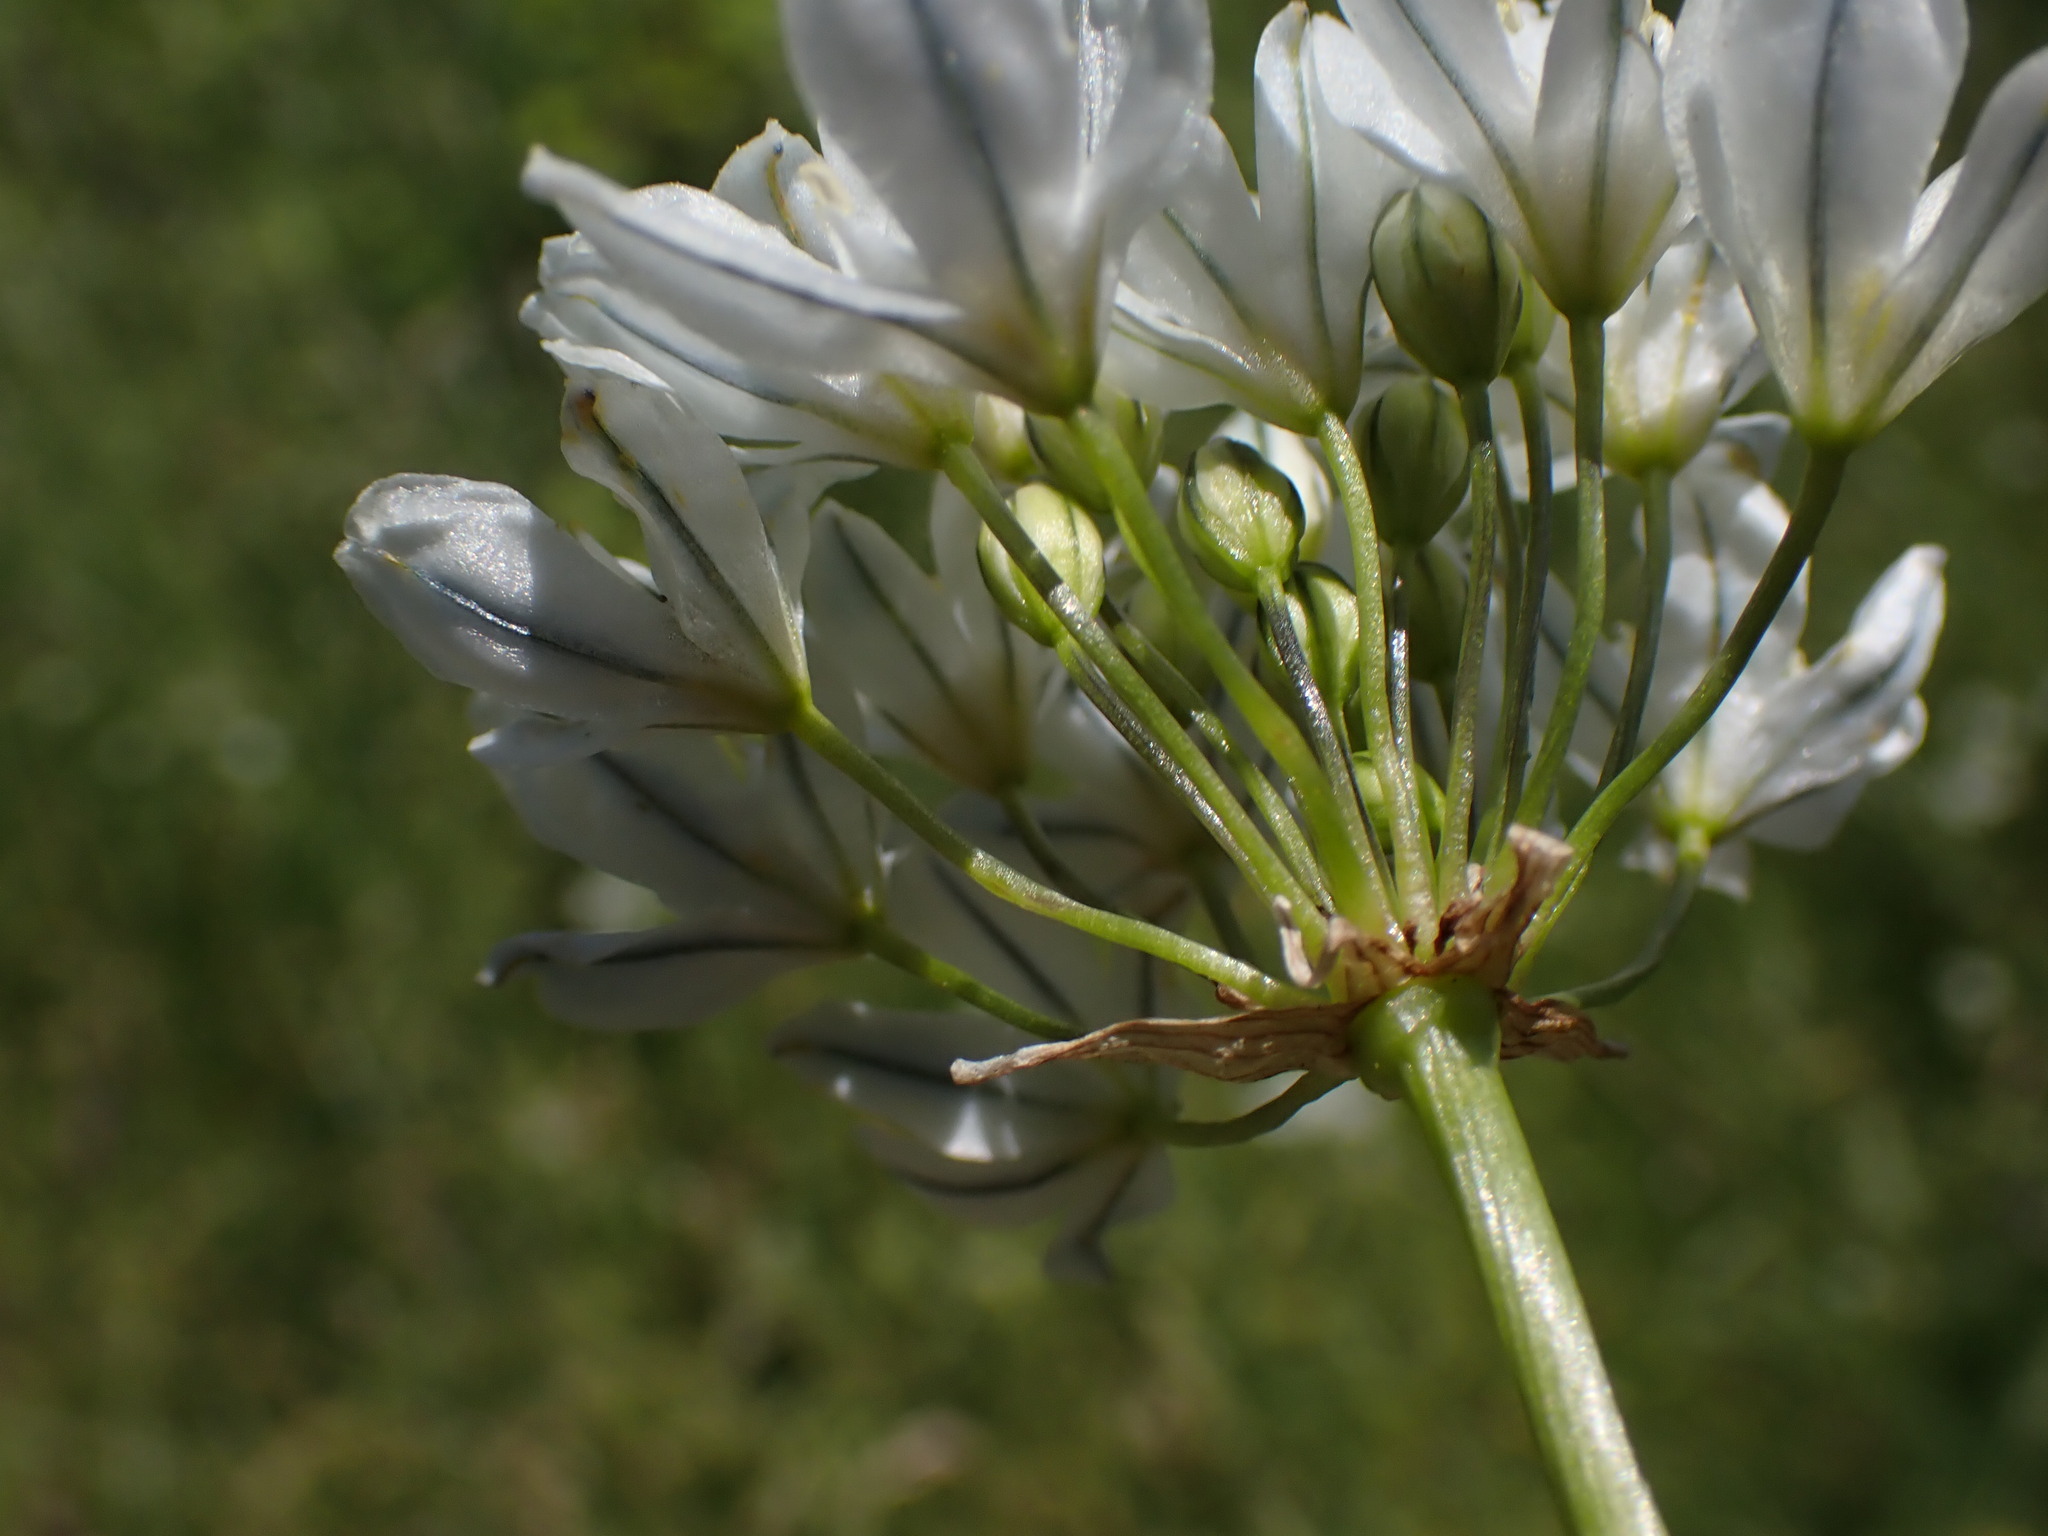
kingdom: Plantae
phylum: Tracheophyta
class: Liliopsida
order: Asparagales
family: Asparagaceae
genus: Triteleia
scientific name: Triteleia hyacinthina
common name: White brodiaea
